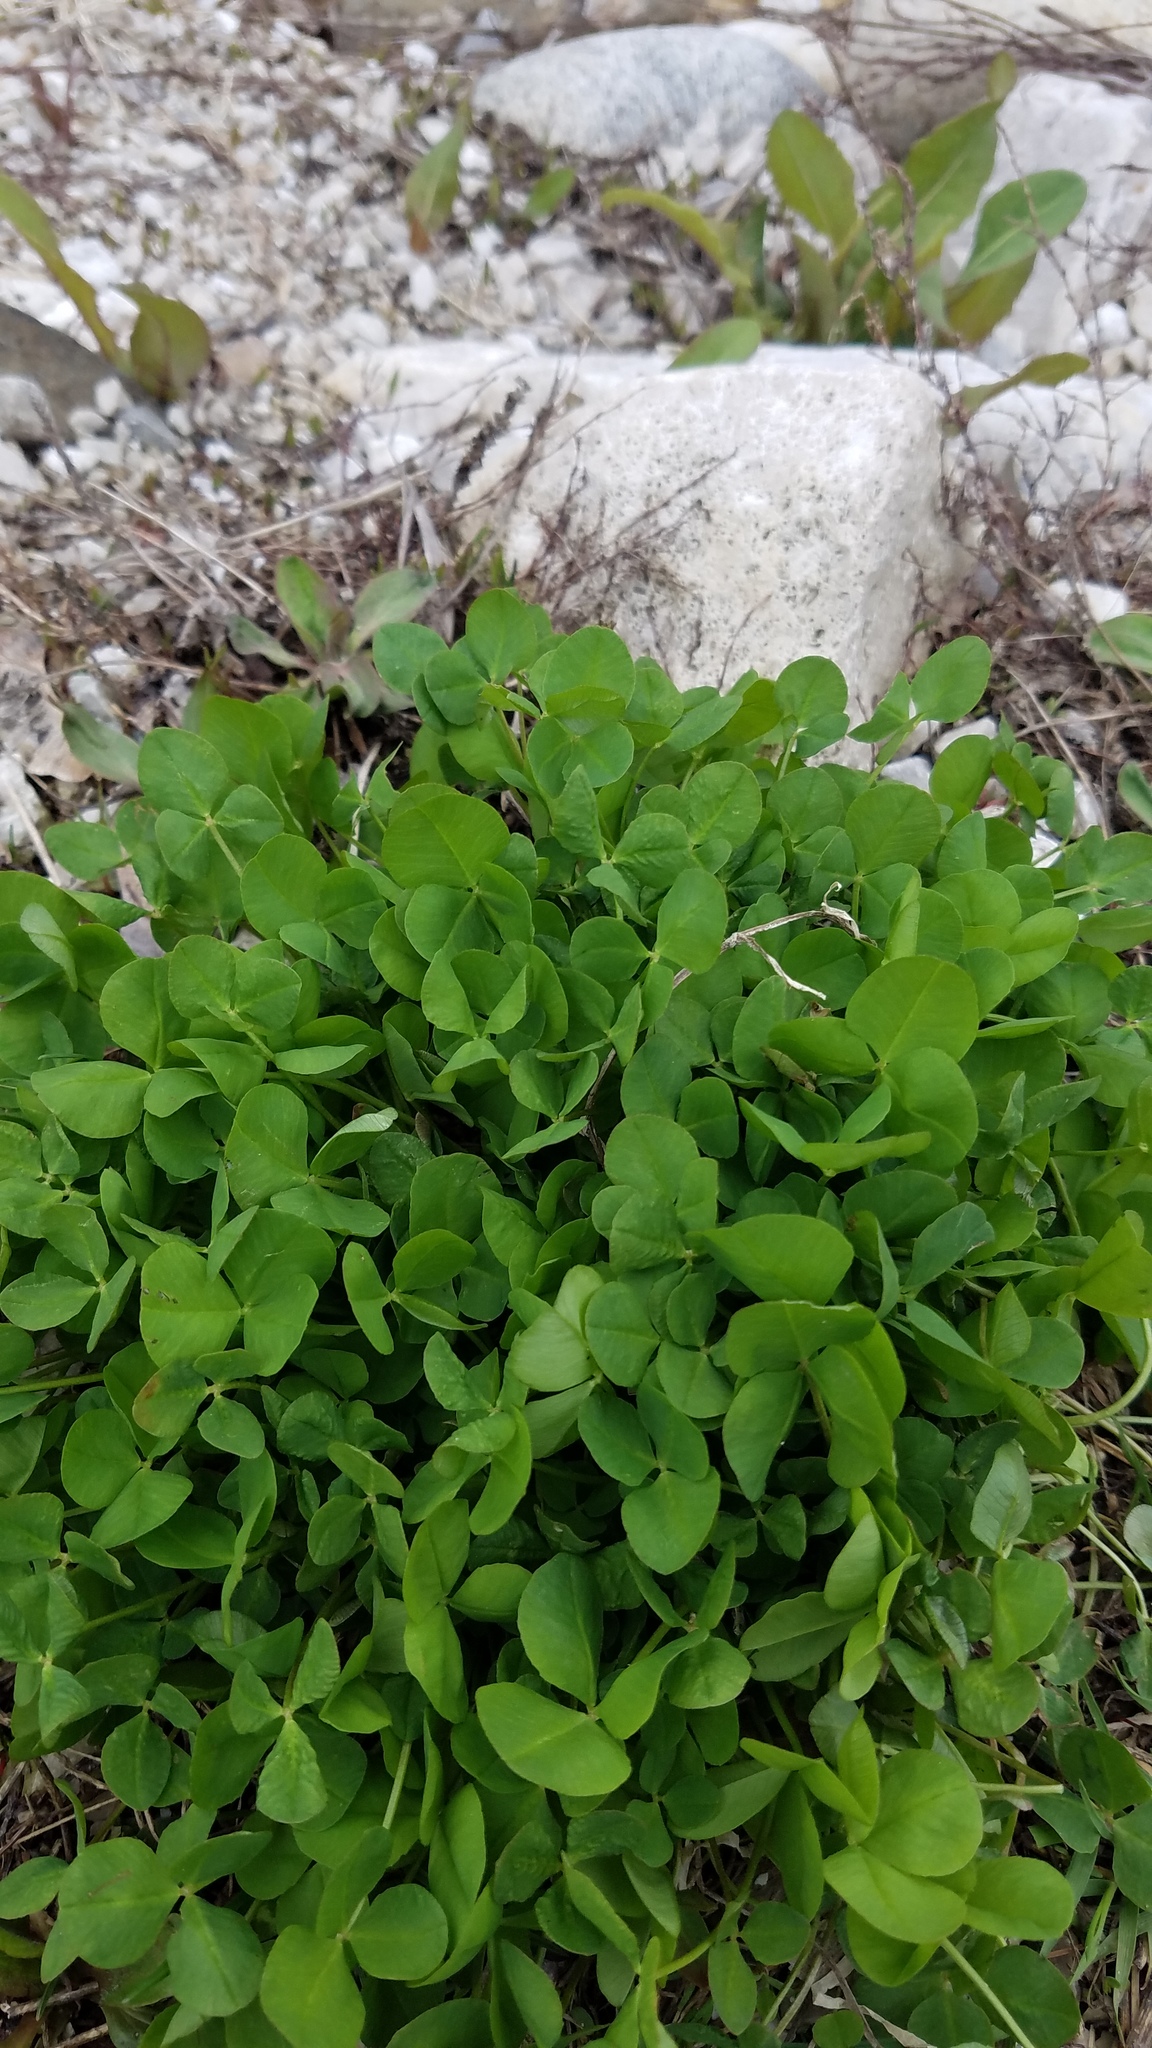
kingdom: Plantae
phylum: Tracheophyta
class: Magnoliopsida
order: Fabales
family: Fabaceae
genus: Trifolium
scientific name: Trifolium repens
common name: White clover
